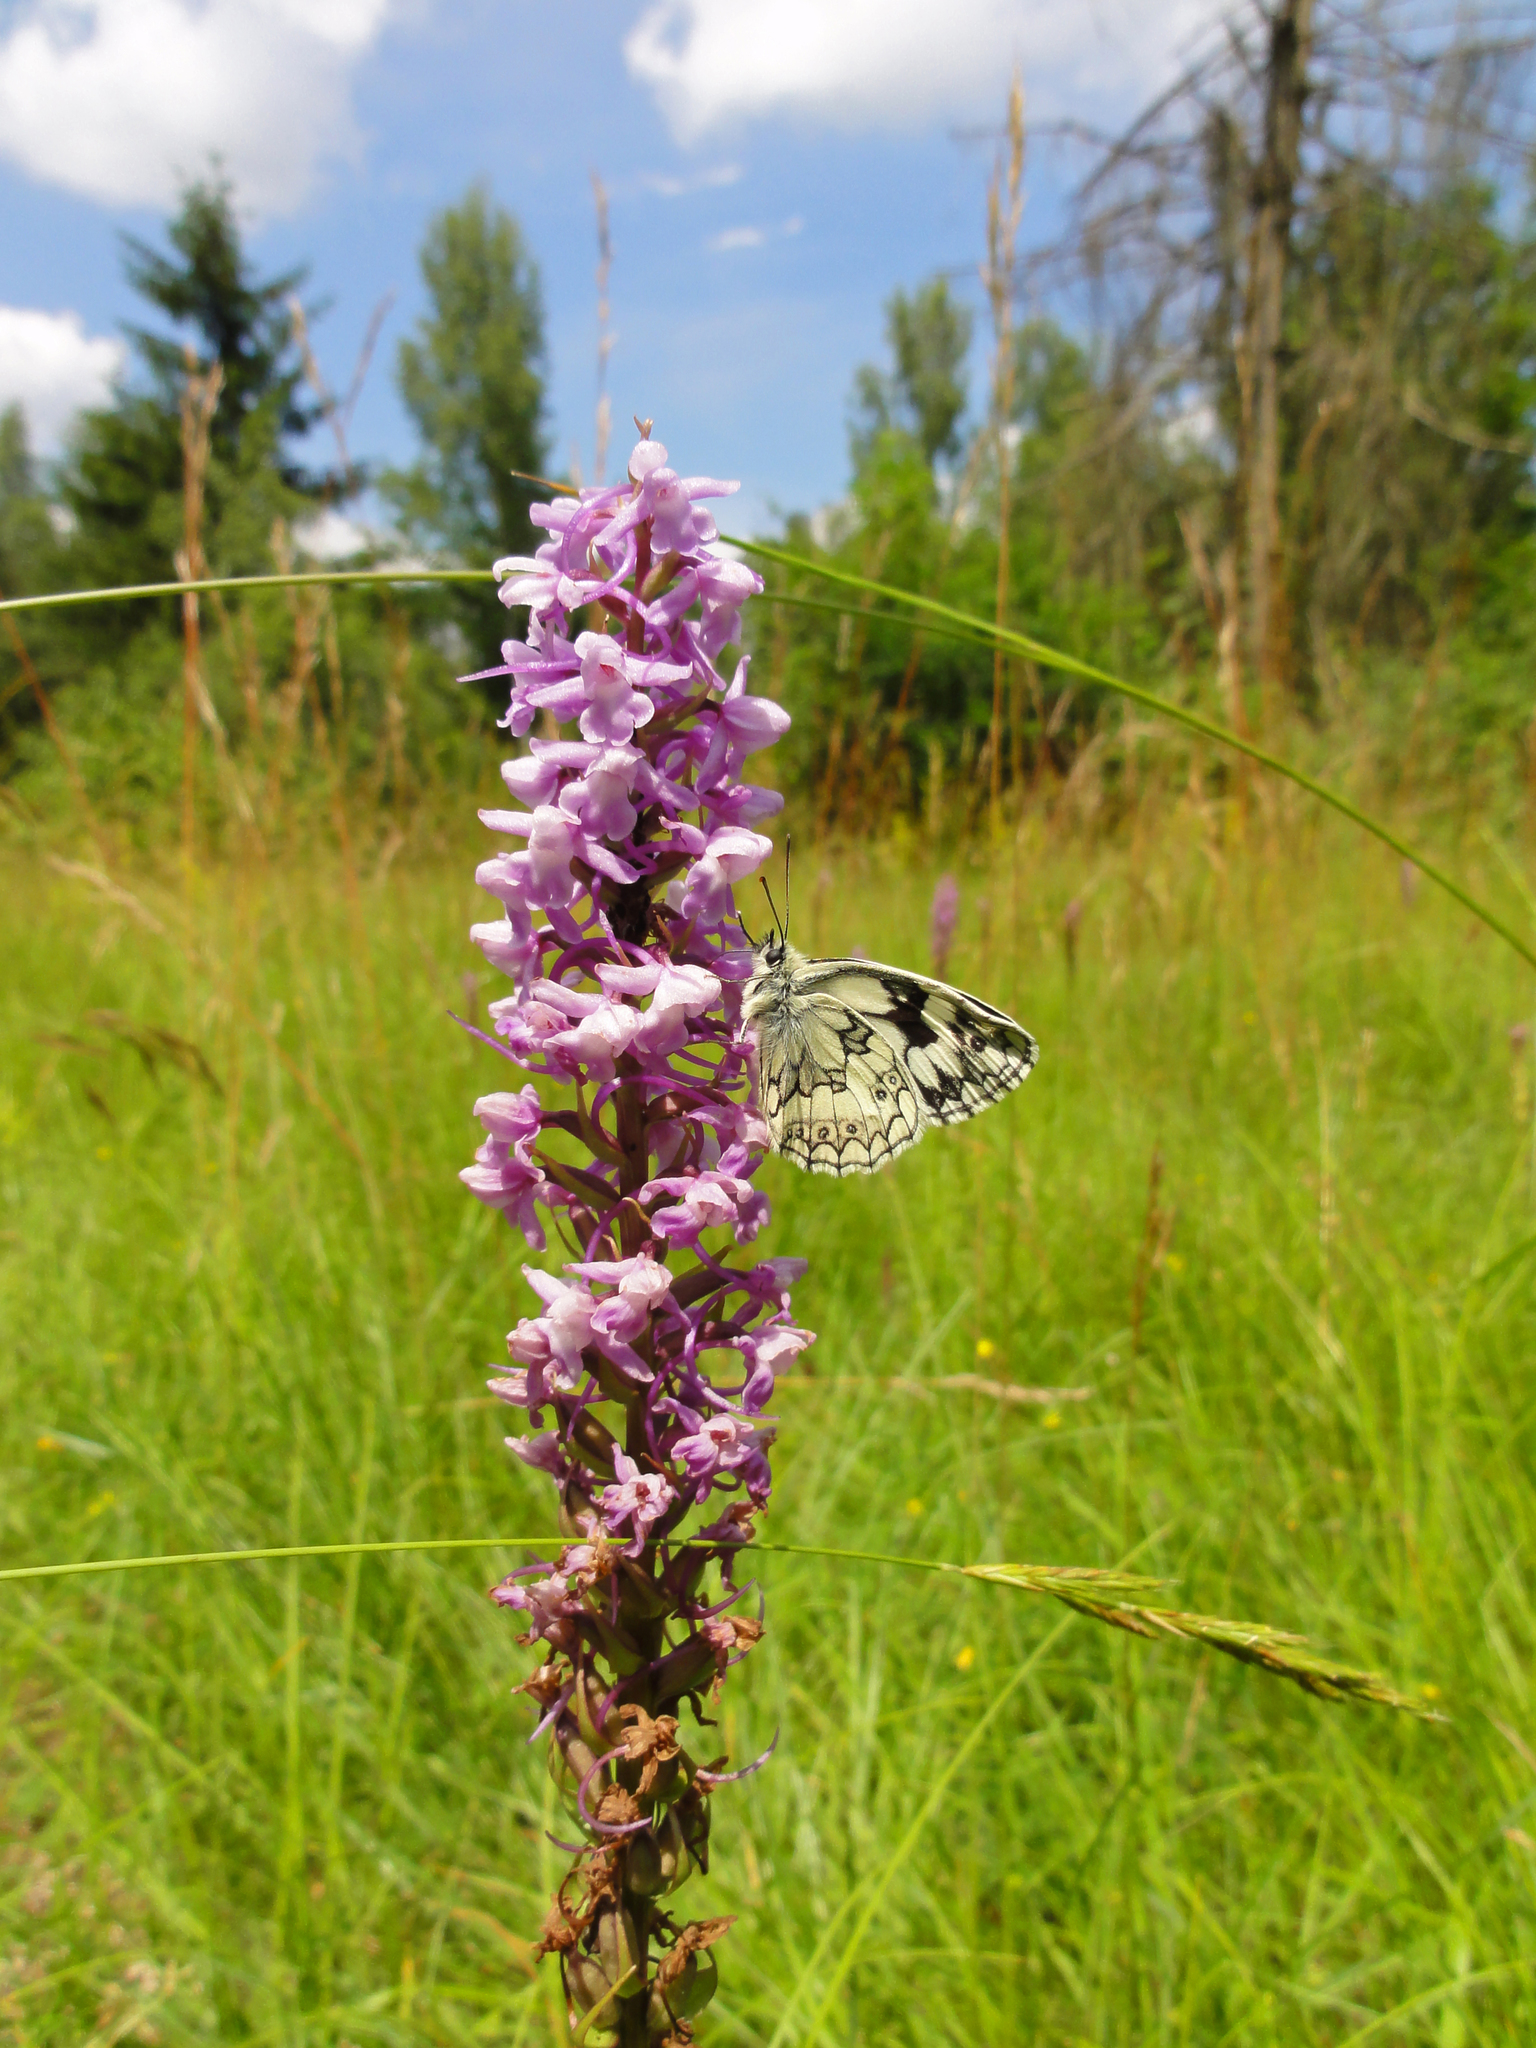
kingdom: Plantae
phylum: Tracheophyta
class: Liliopsida
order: Asparagales
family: Orchidaceae
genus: Gymnadenia
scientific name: Gymnadenia conopsea
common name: Fragrant orchid
